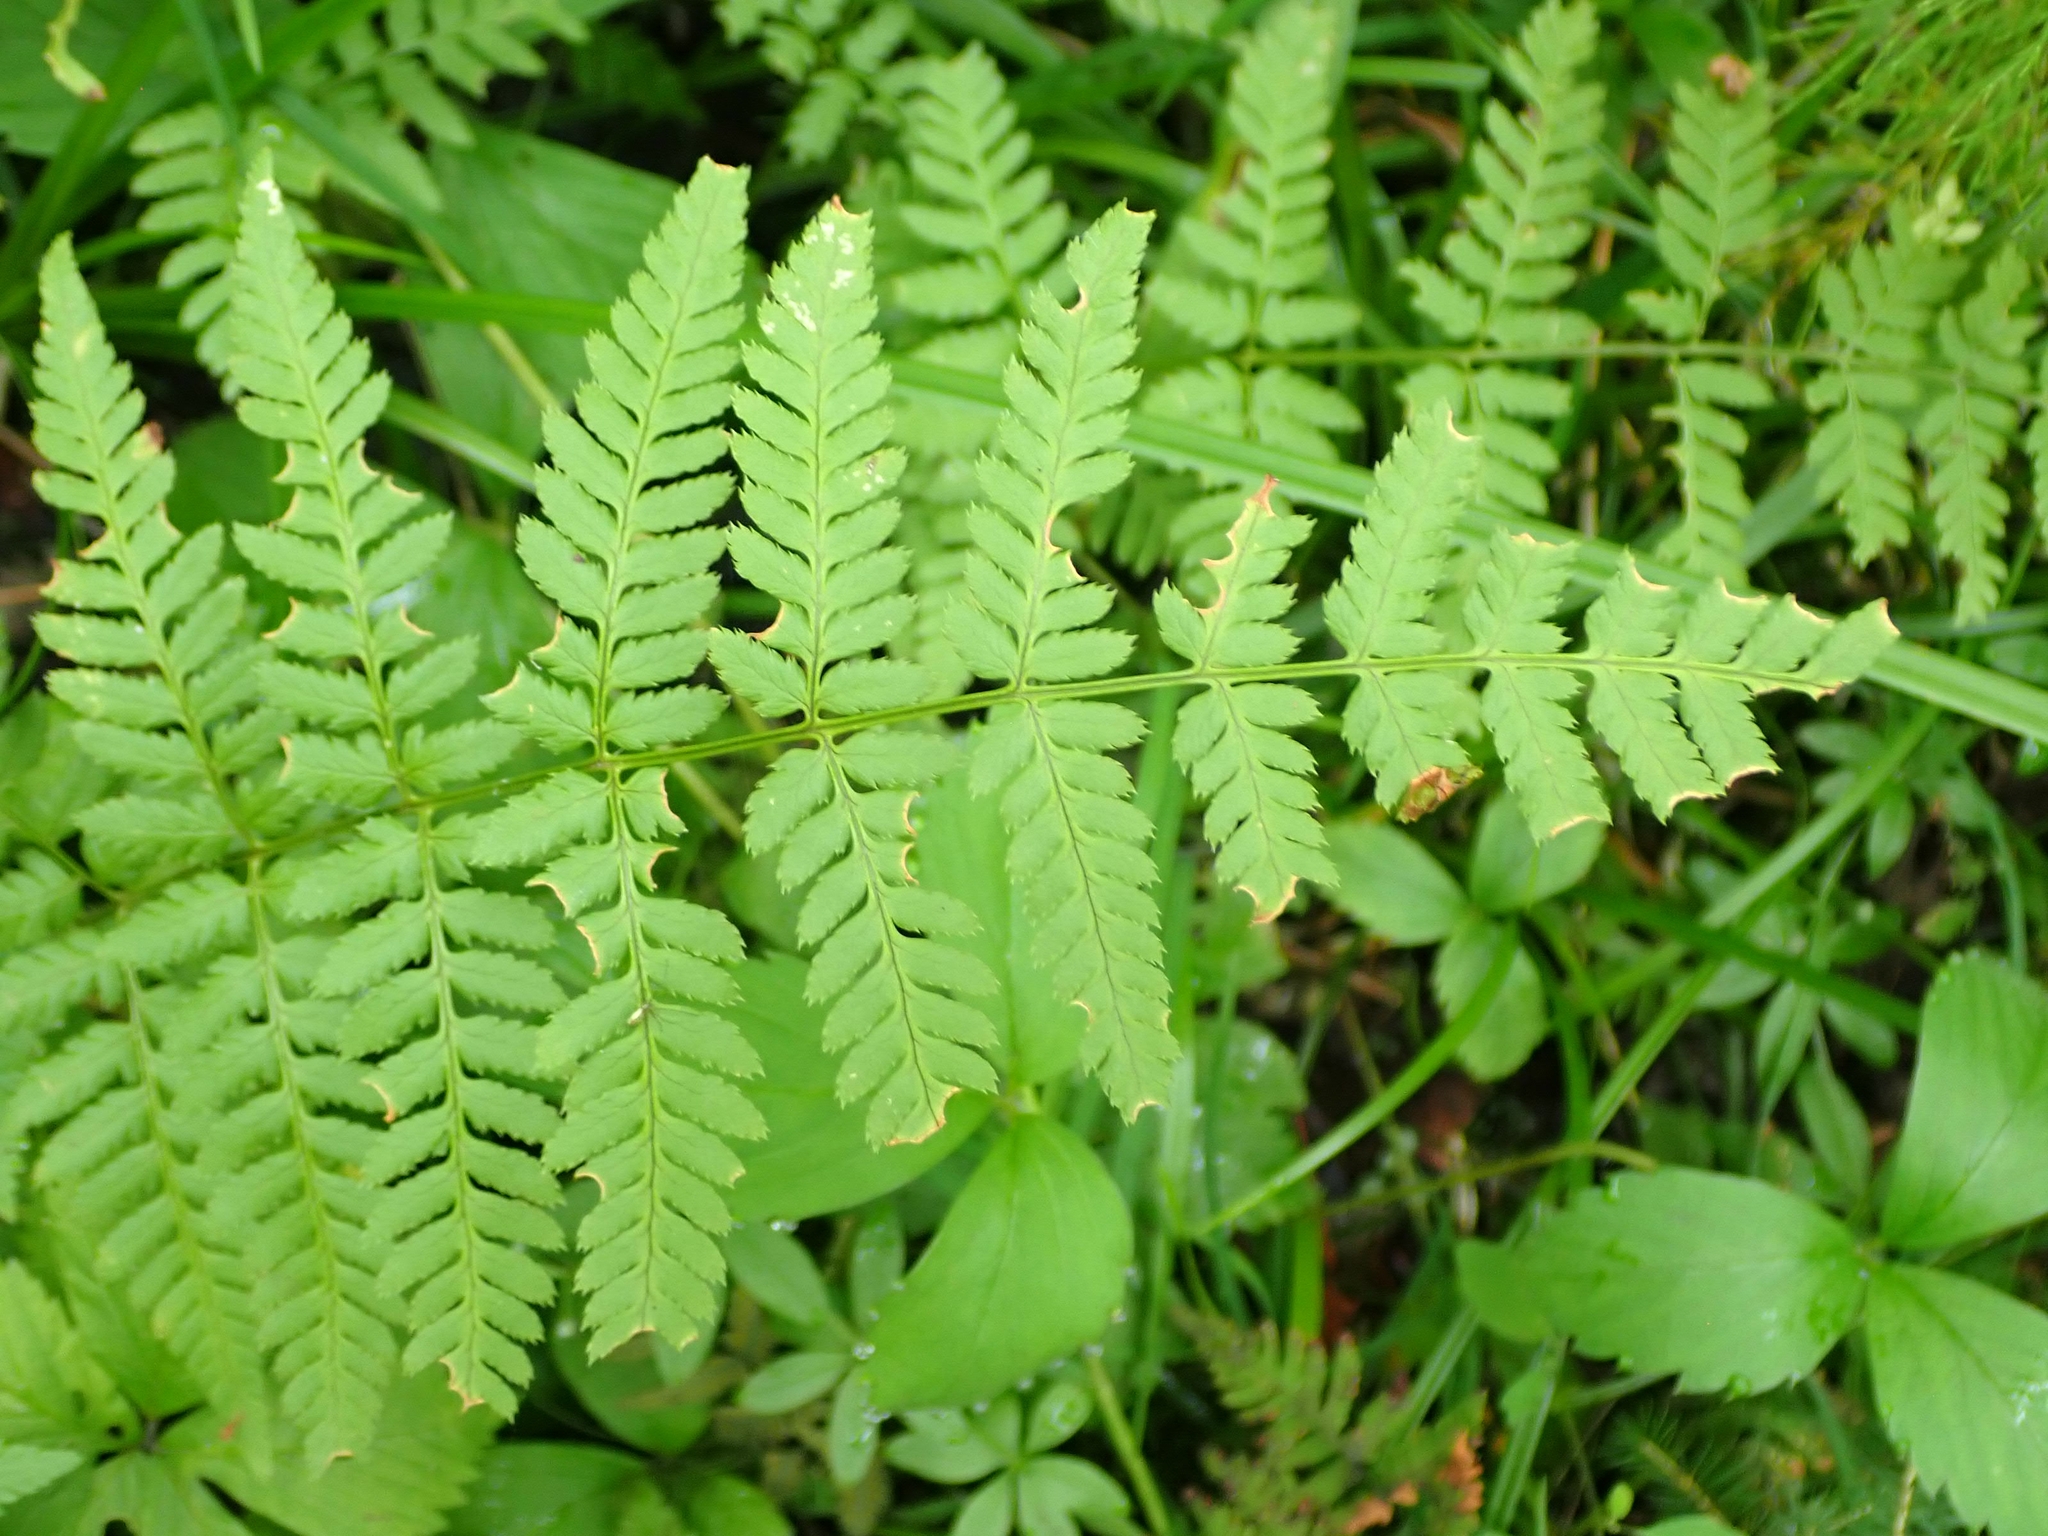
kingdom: Plantae
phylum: Tracheophyta
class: Polypodiopsida
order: Polypodiales
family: Dryopteridaceae
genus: Dryopteris
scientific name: Dryopteris carthusiana
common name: Narrow buckler-fern
